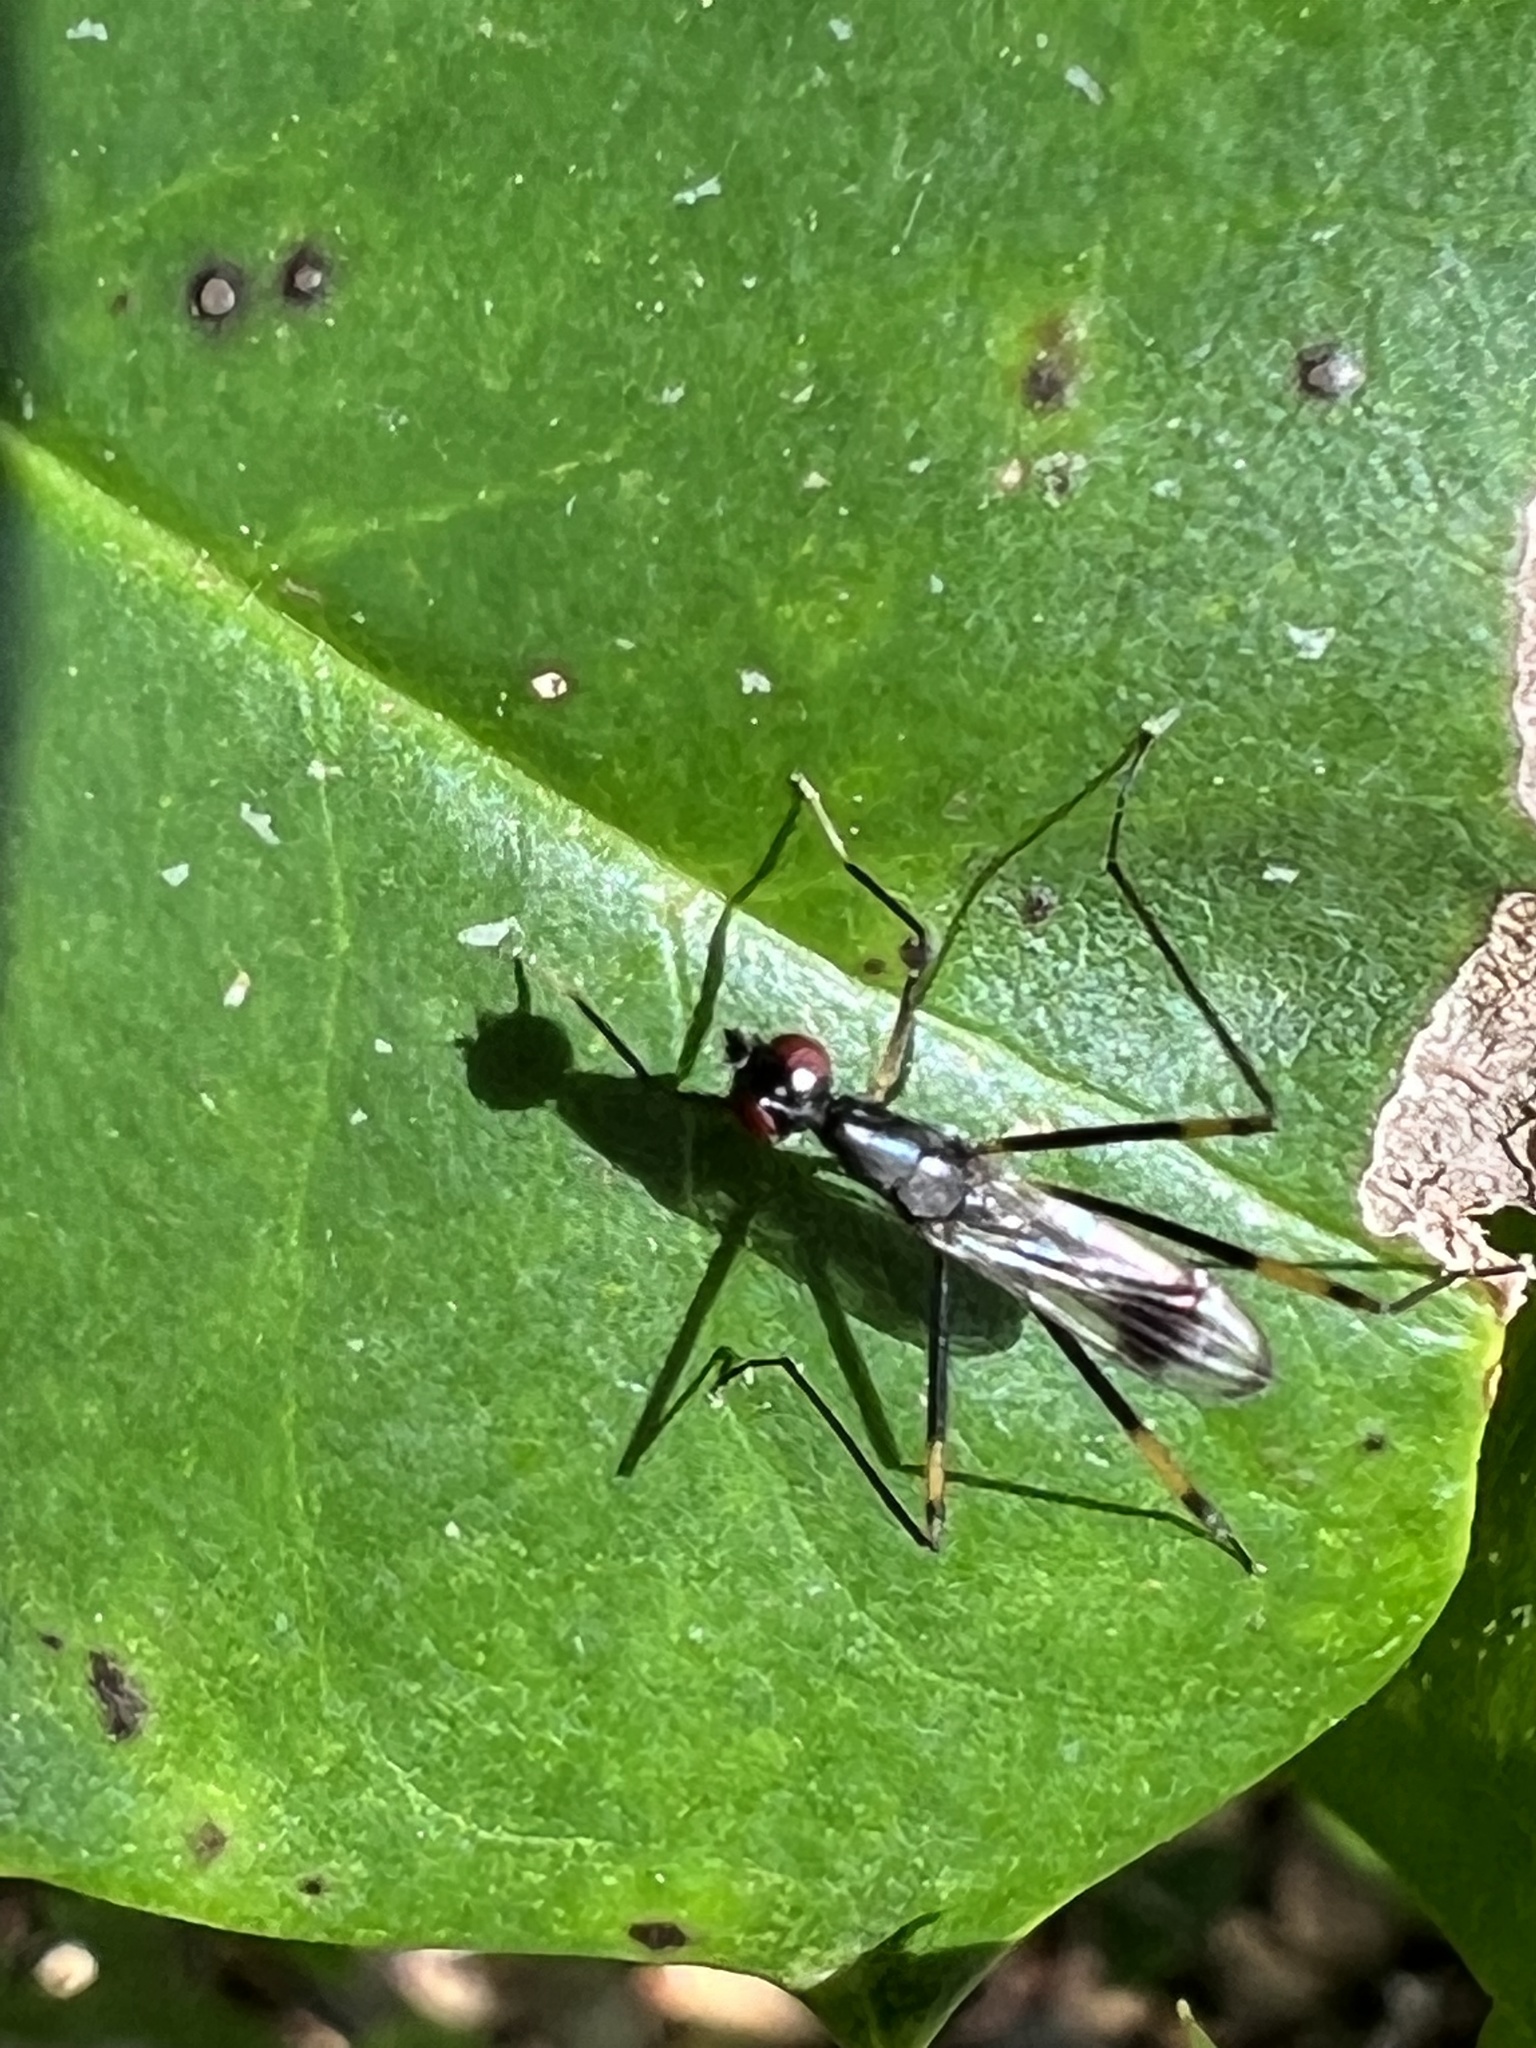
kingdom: Animalia
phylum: Arthropoda
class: Insecta
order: Diptera
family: Micropezidae
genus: Rainieria
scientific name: Rainieria antennaepes
